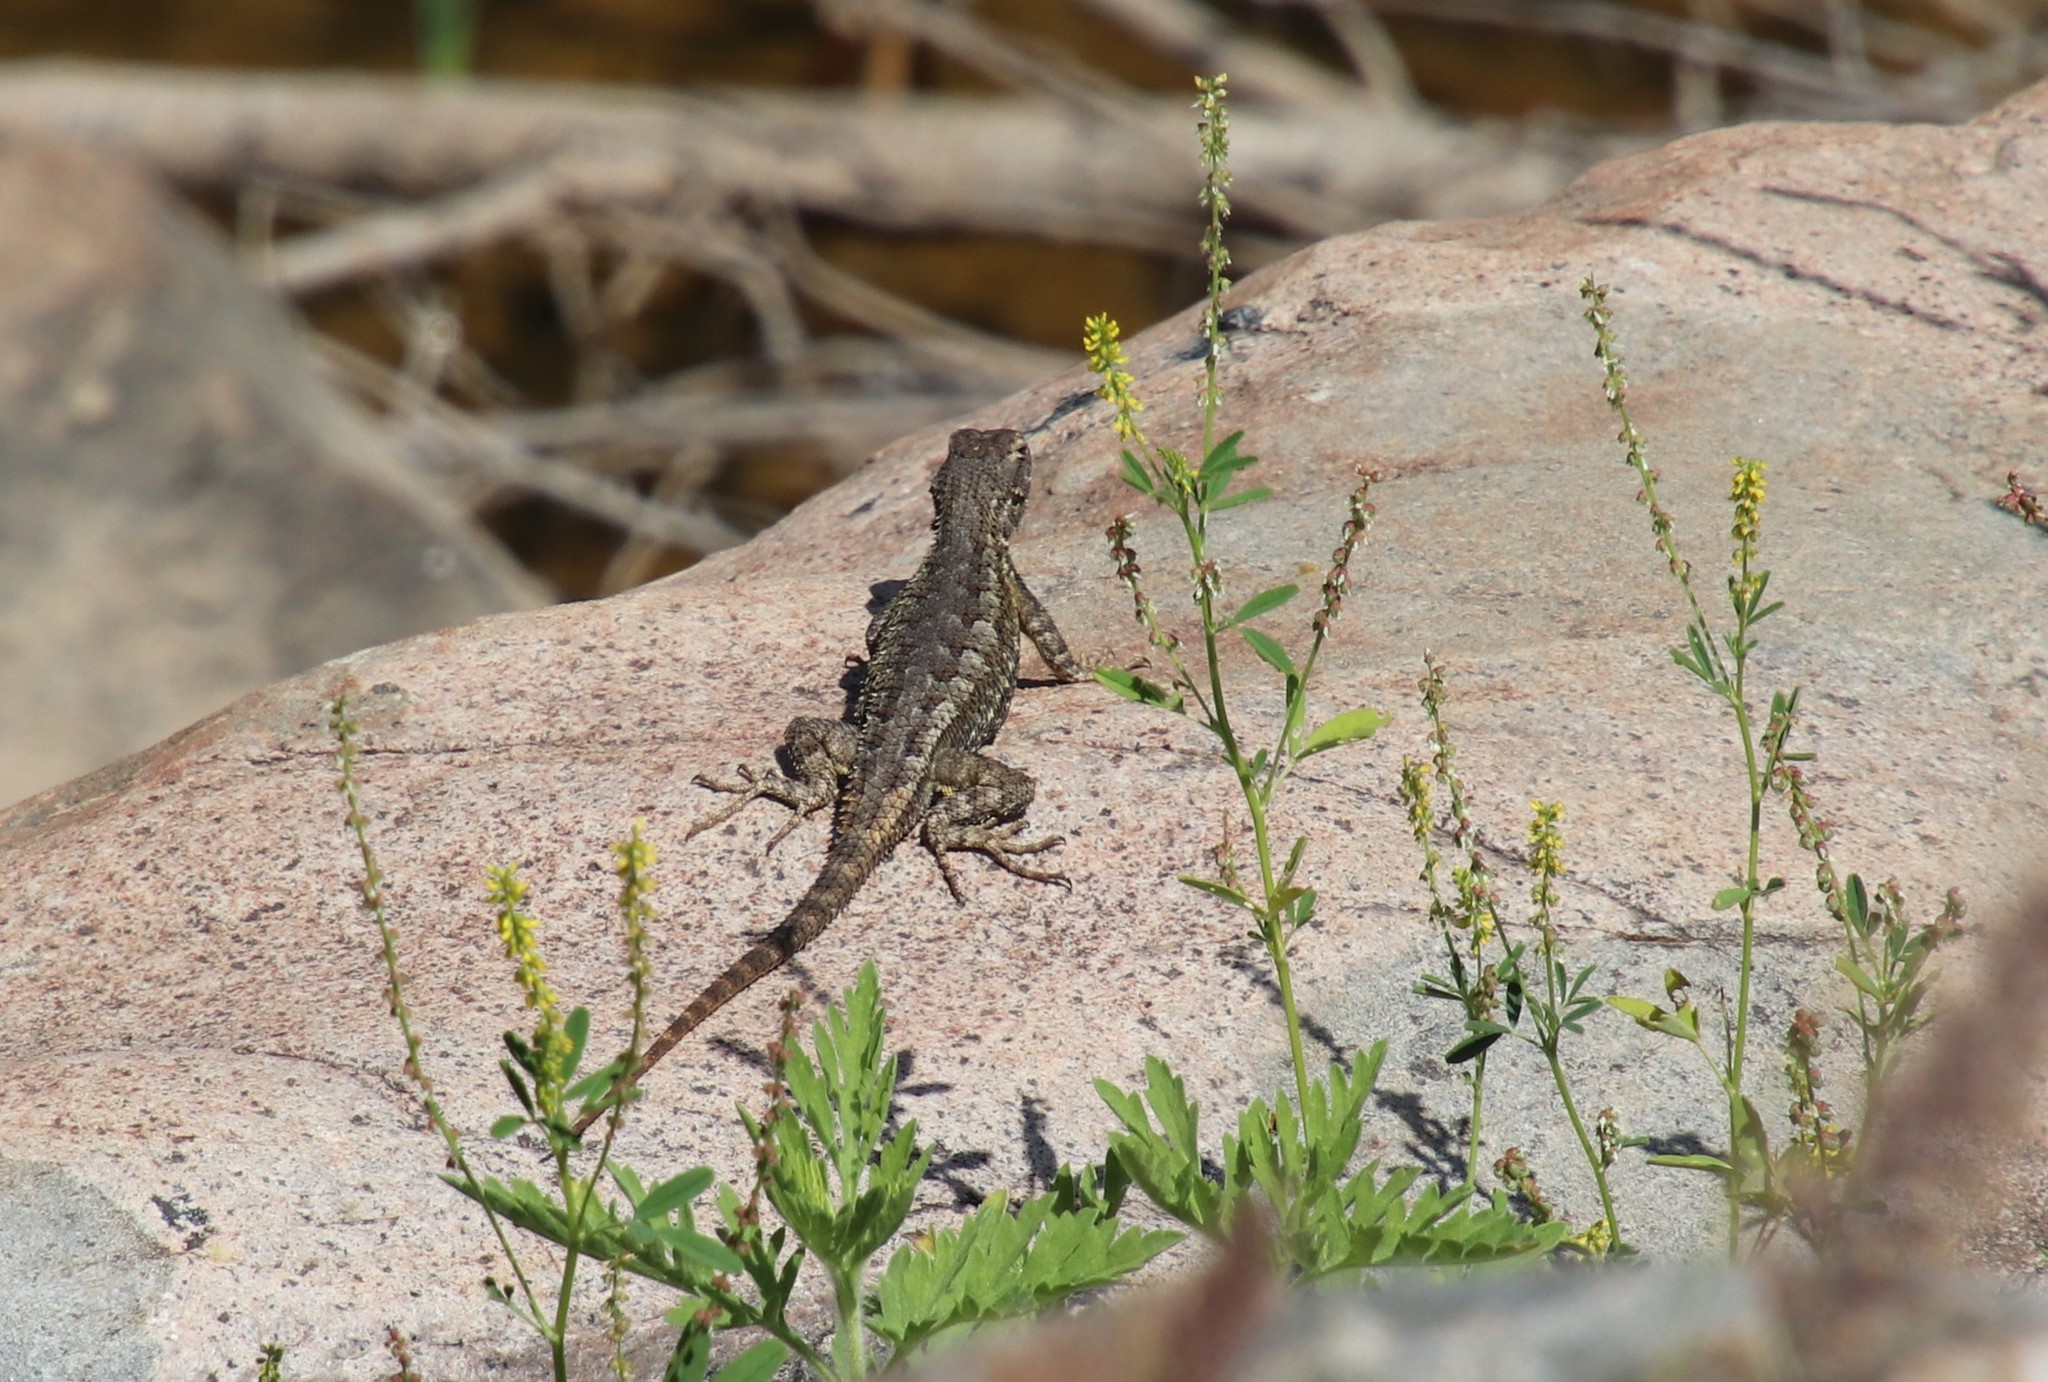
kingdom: Animalia
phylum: Chordata
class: Squamata
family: Phrynosomatidae
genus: Sceloporus
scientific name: Sceloporus occidentalis
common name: Western fence lizard
